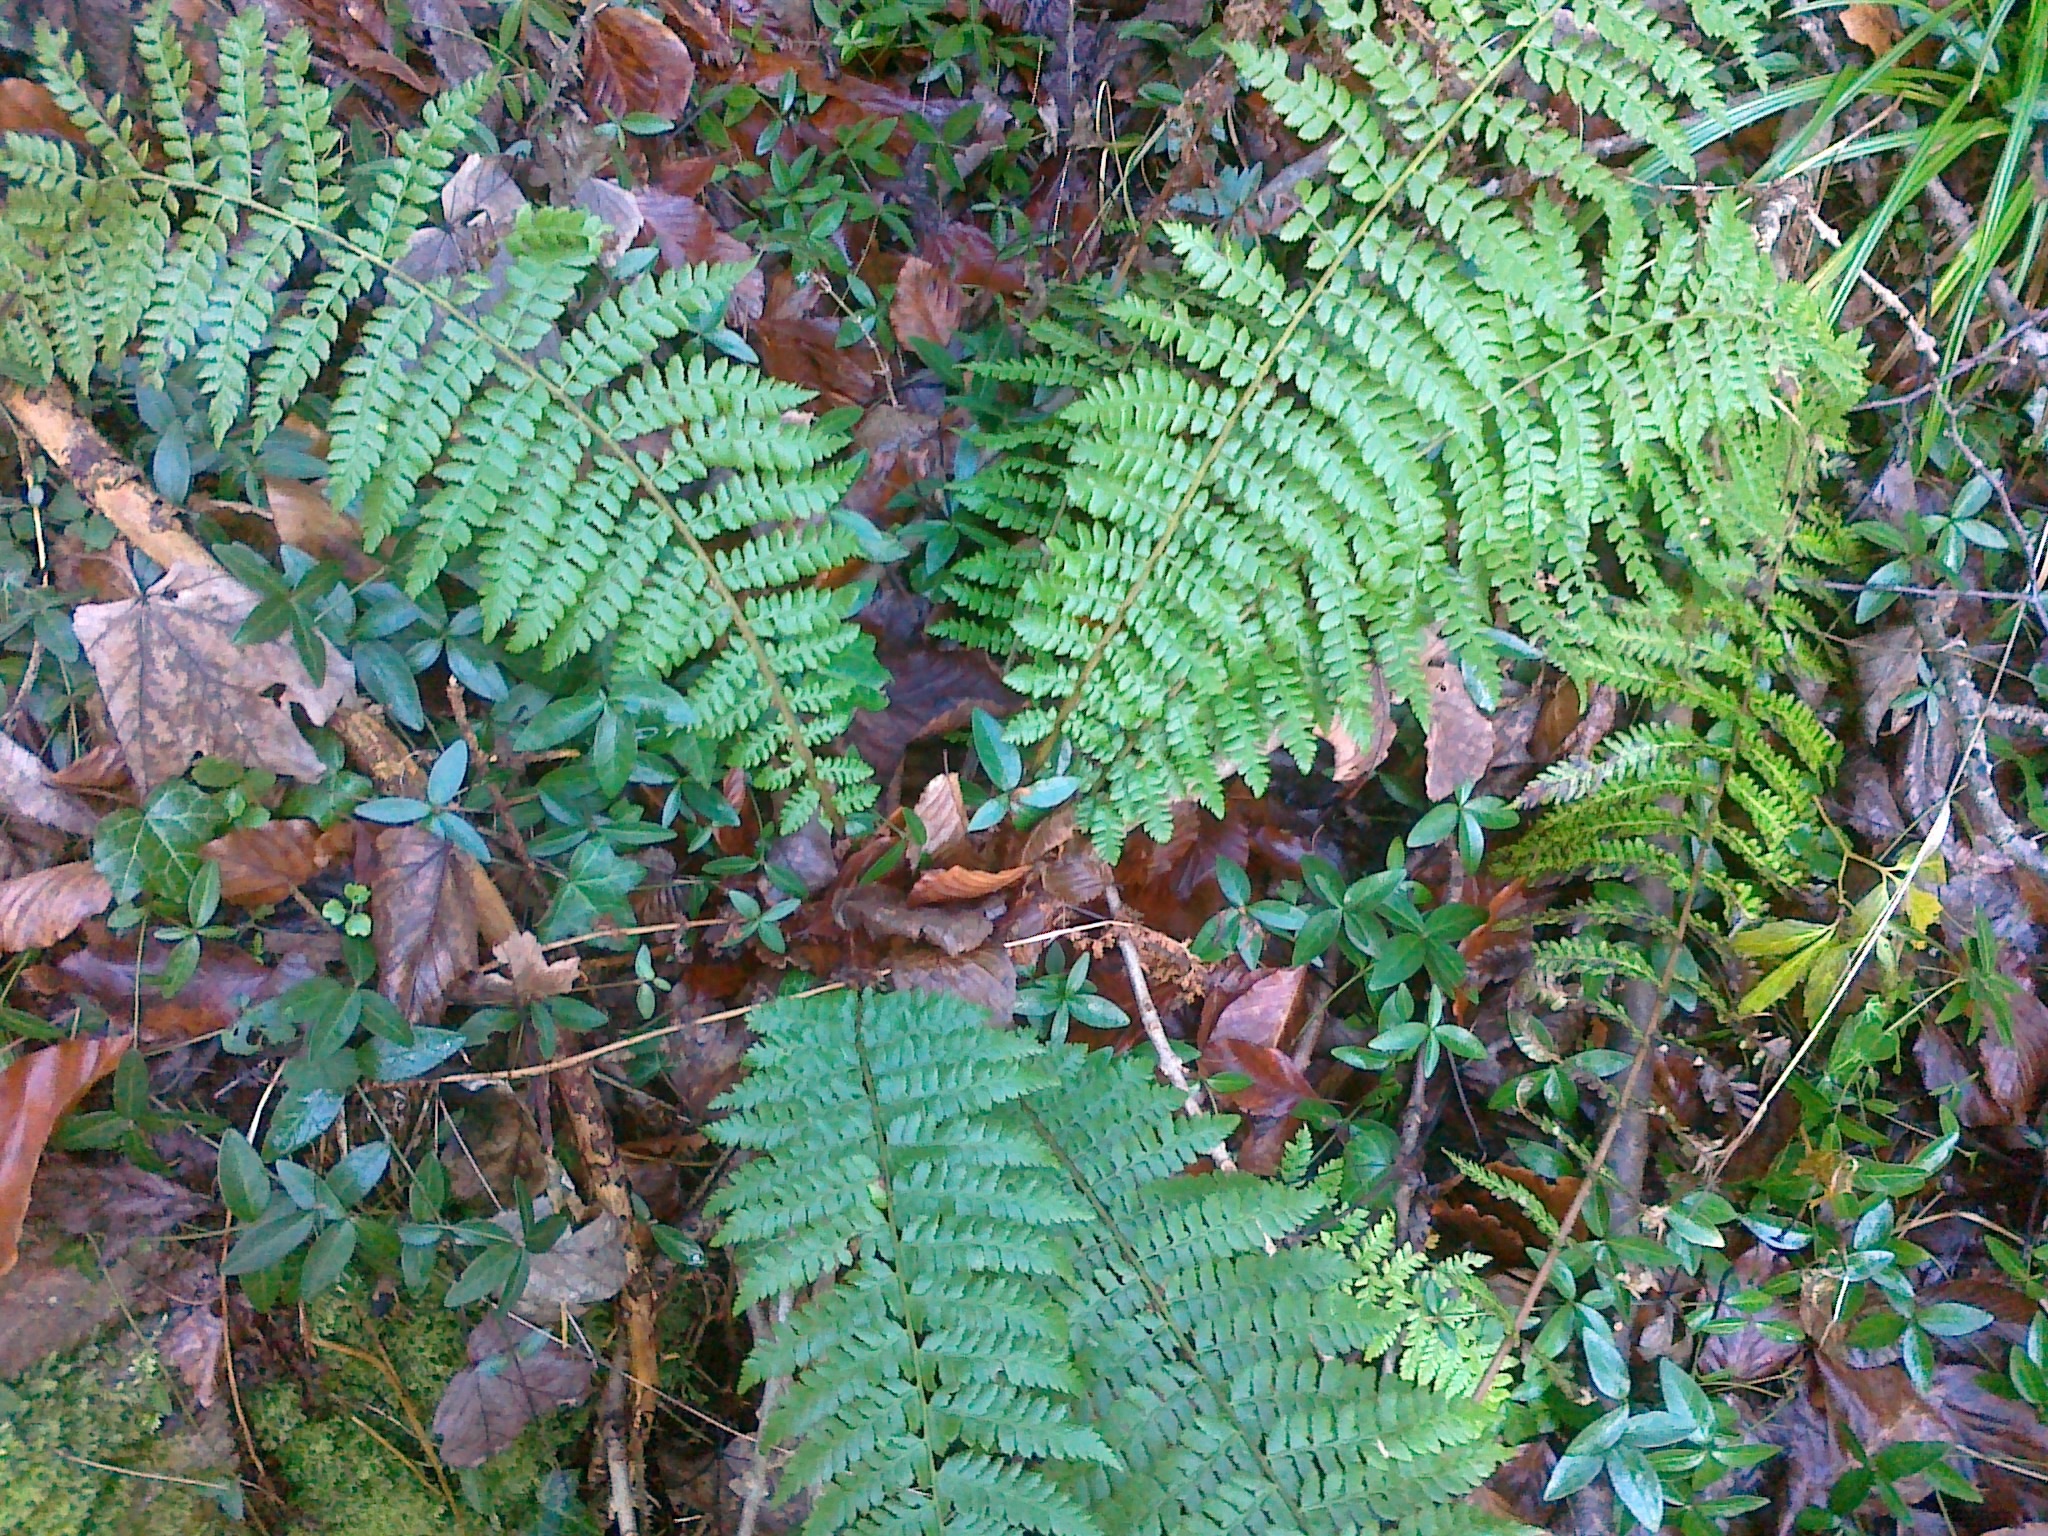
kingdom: Plantae
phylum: Tracheophyta
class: Polypodiopsida
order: Polypodiales
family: Dryopteridaceae
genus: Polystichum
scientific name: Polystichum braunii
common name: Braun's holly fern
